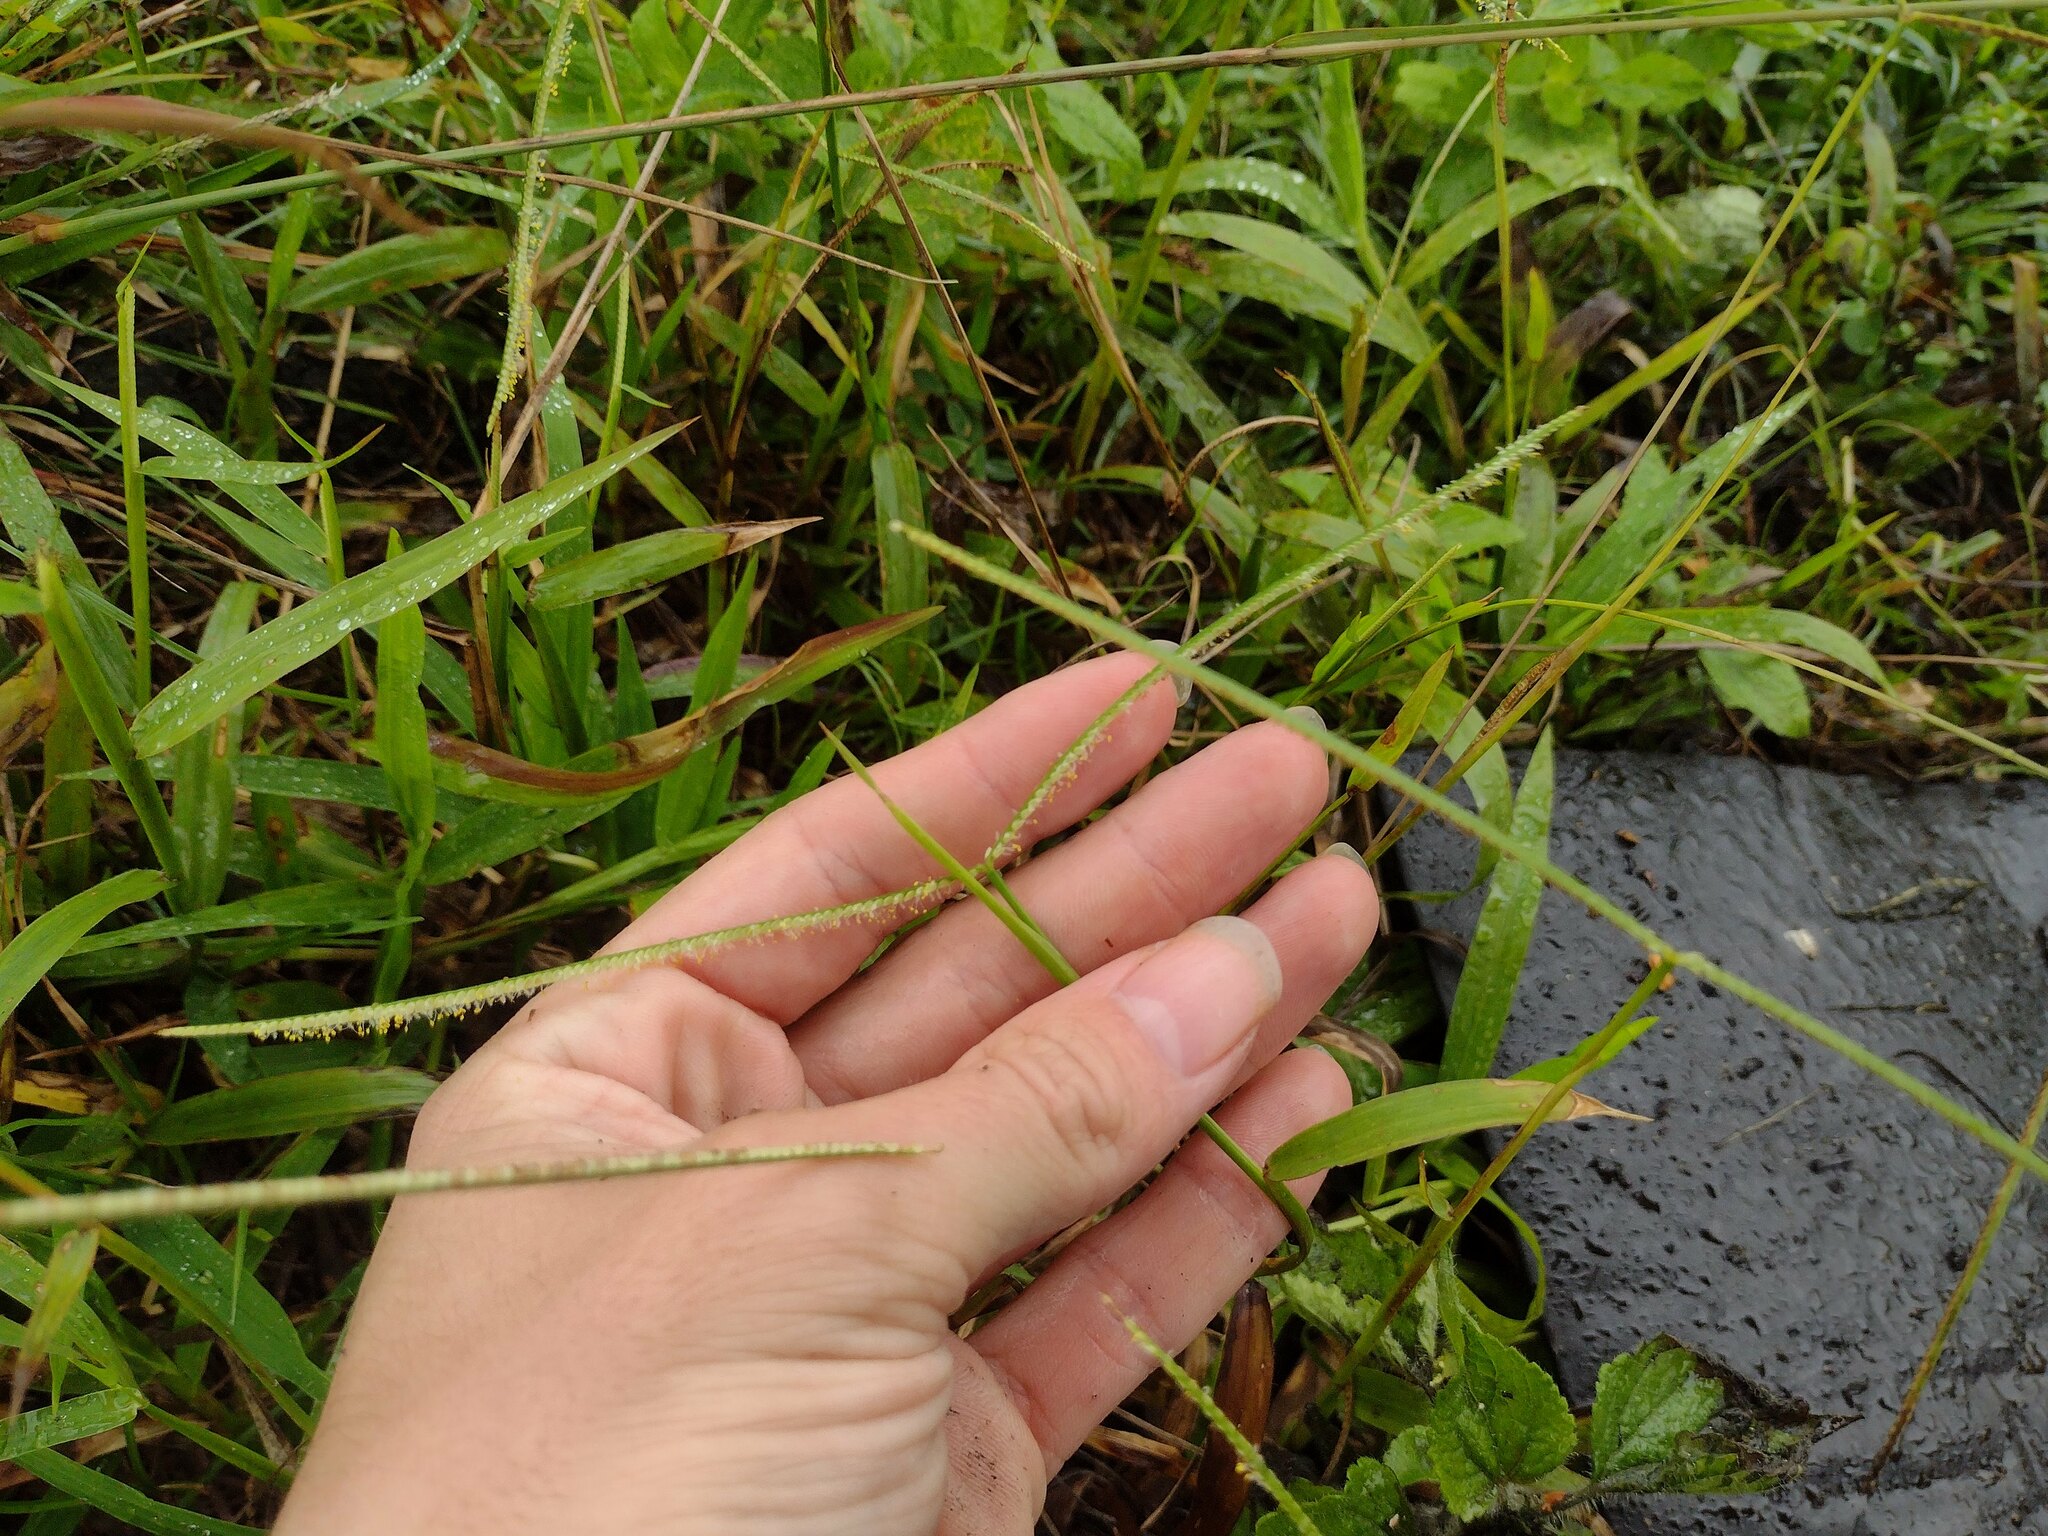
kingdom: Plantae
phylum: Tracheophyta
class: Liliopsida
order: Poales
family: Poaceae
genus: Paspalum
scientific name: Paspalum conjugatum
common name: Hilograss
